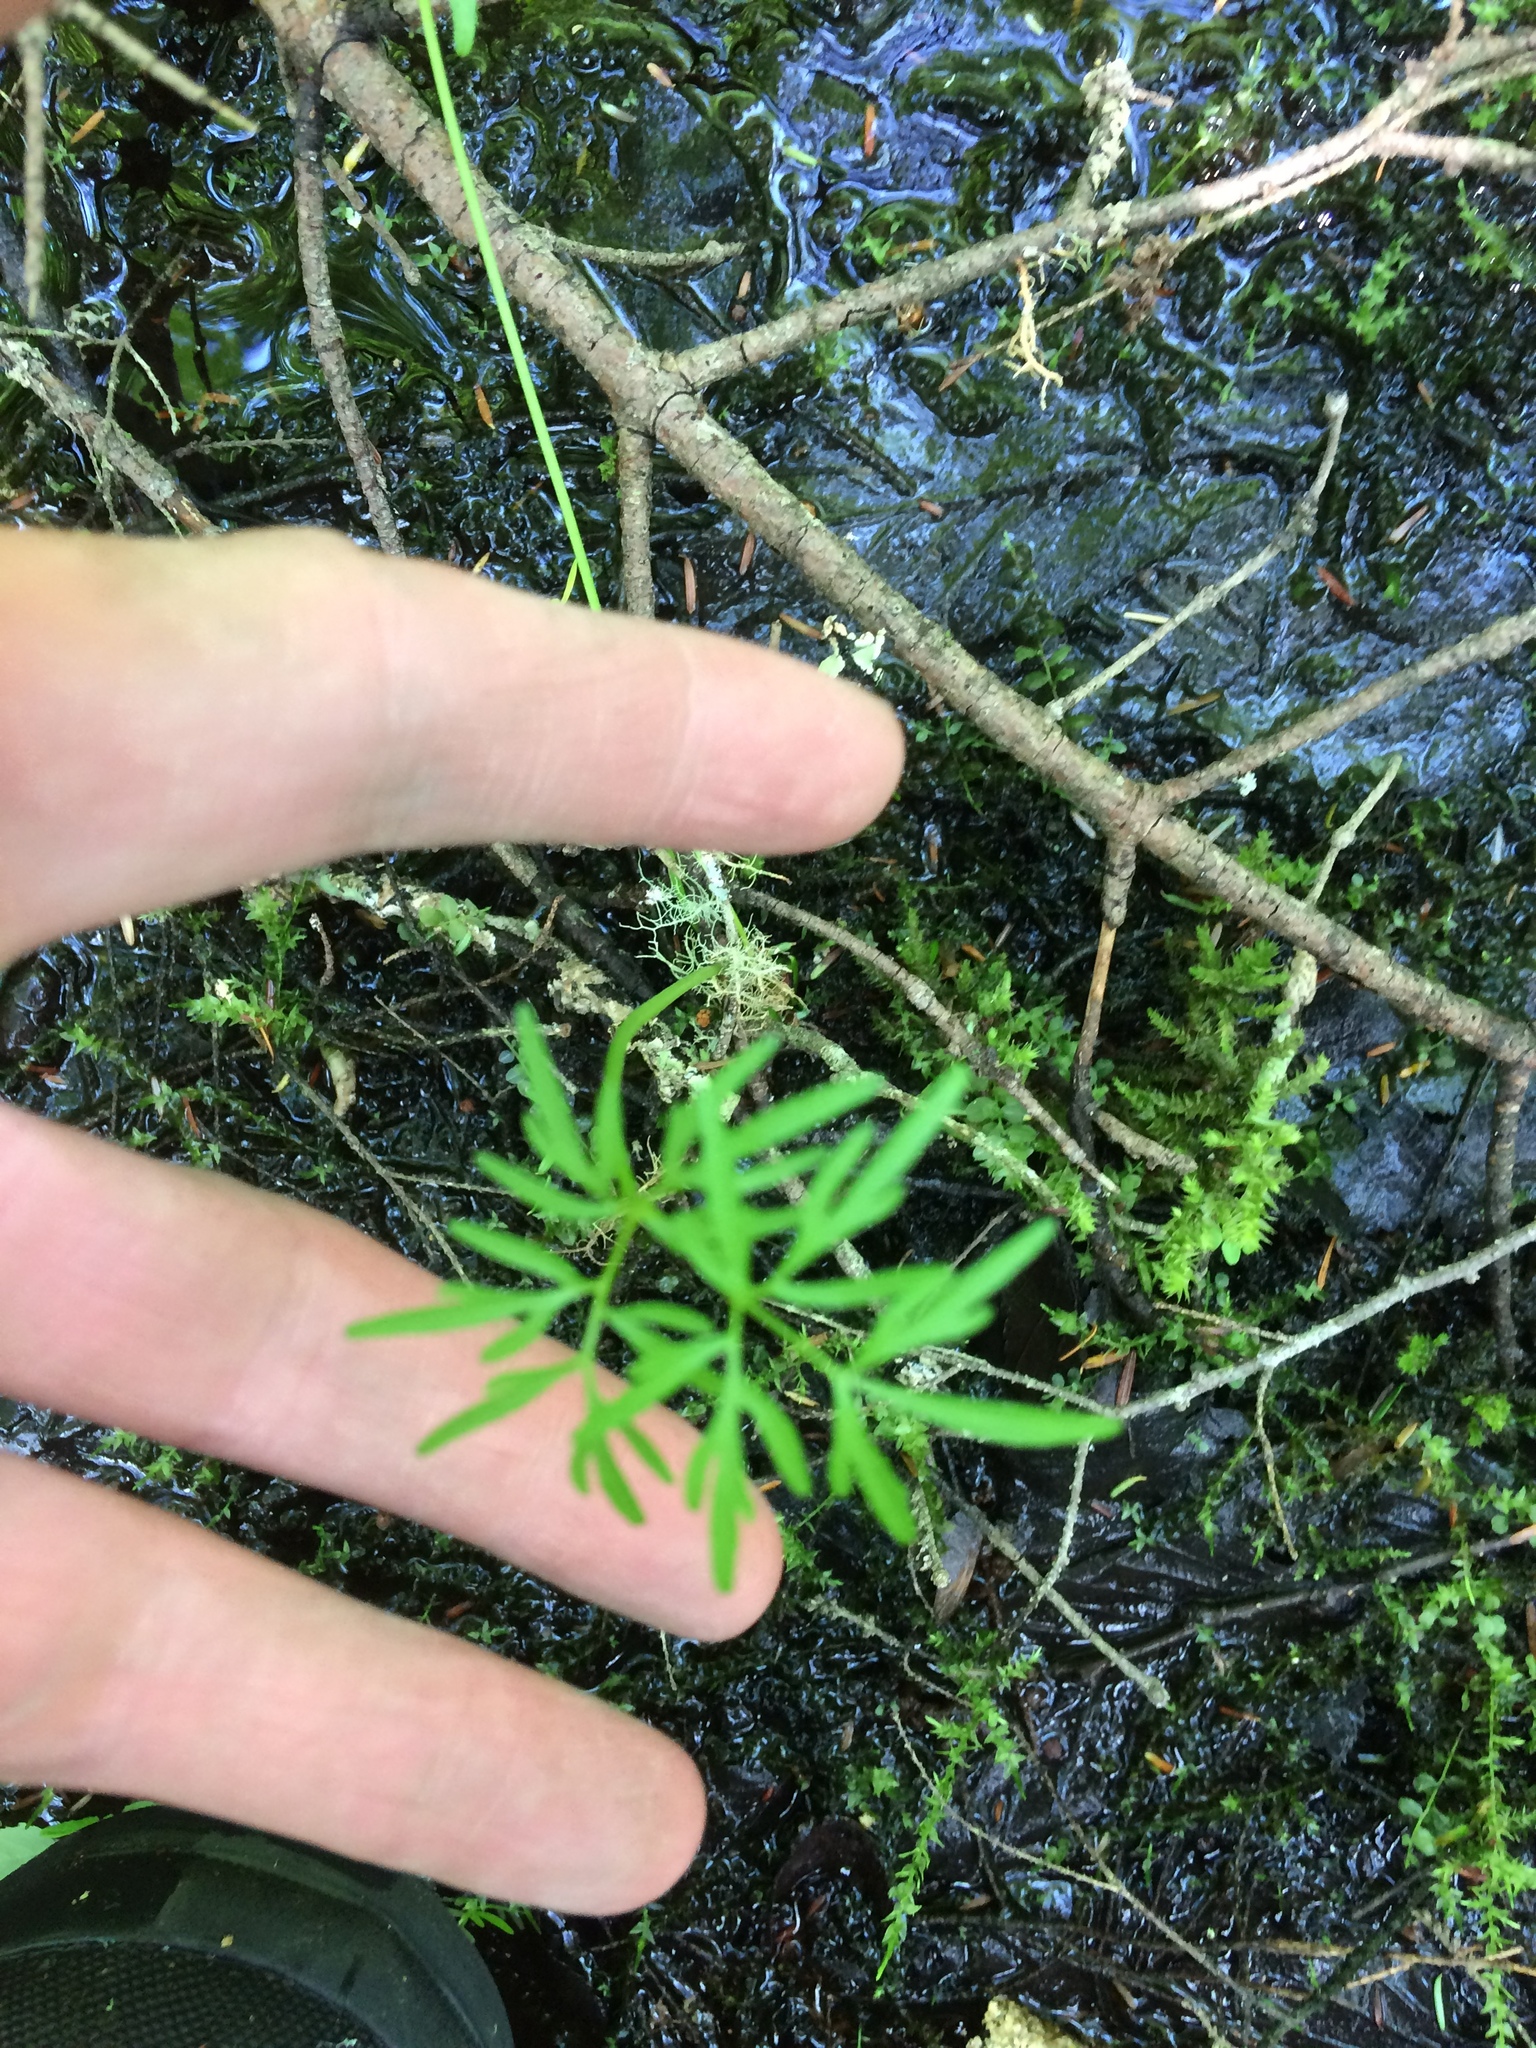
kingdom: Plantae
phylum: Tracheophyta
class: Magnoliopsida
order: Apiales
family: Apiaceae
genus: Cicuta
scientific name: Cicuta bulbifera
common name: Bulb-bearing water-hemlock
